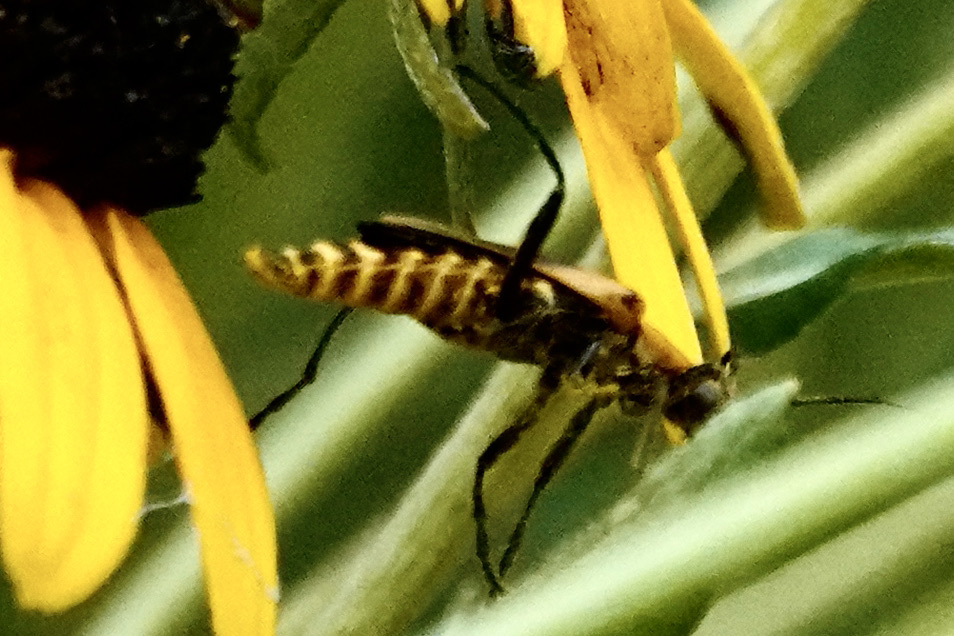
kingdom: Animalia
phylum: Arthropoda
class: Insecta
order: Coleoptera
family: Cantharidae
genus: Chauliognathus
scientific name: Chauliognathus pensylvanicus
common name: Goldenrod soldier beetle
